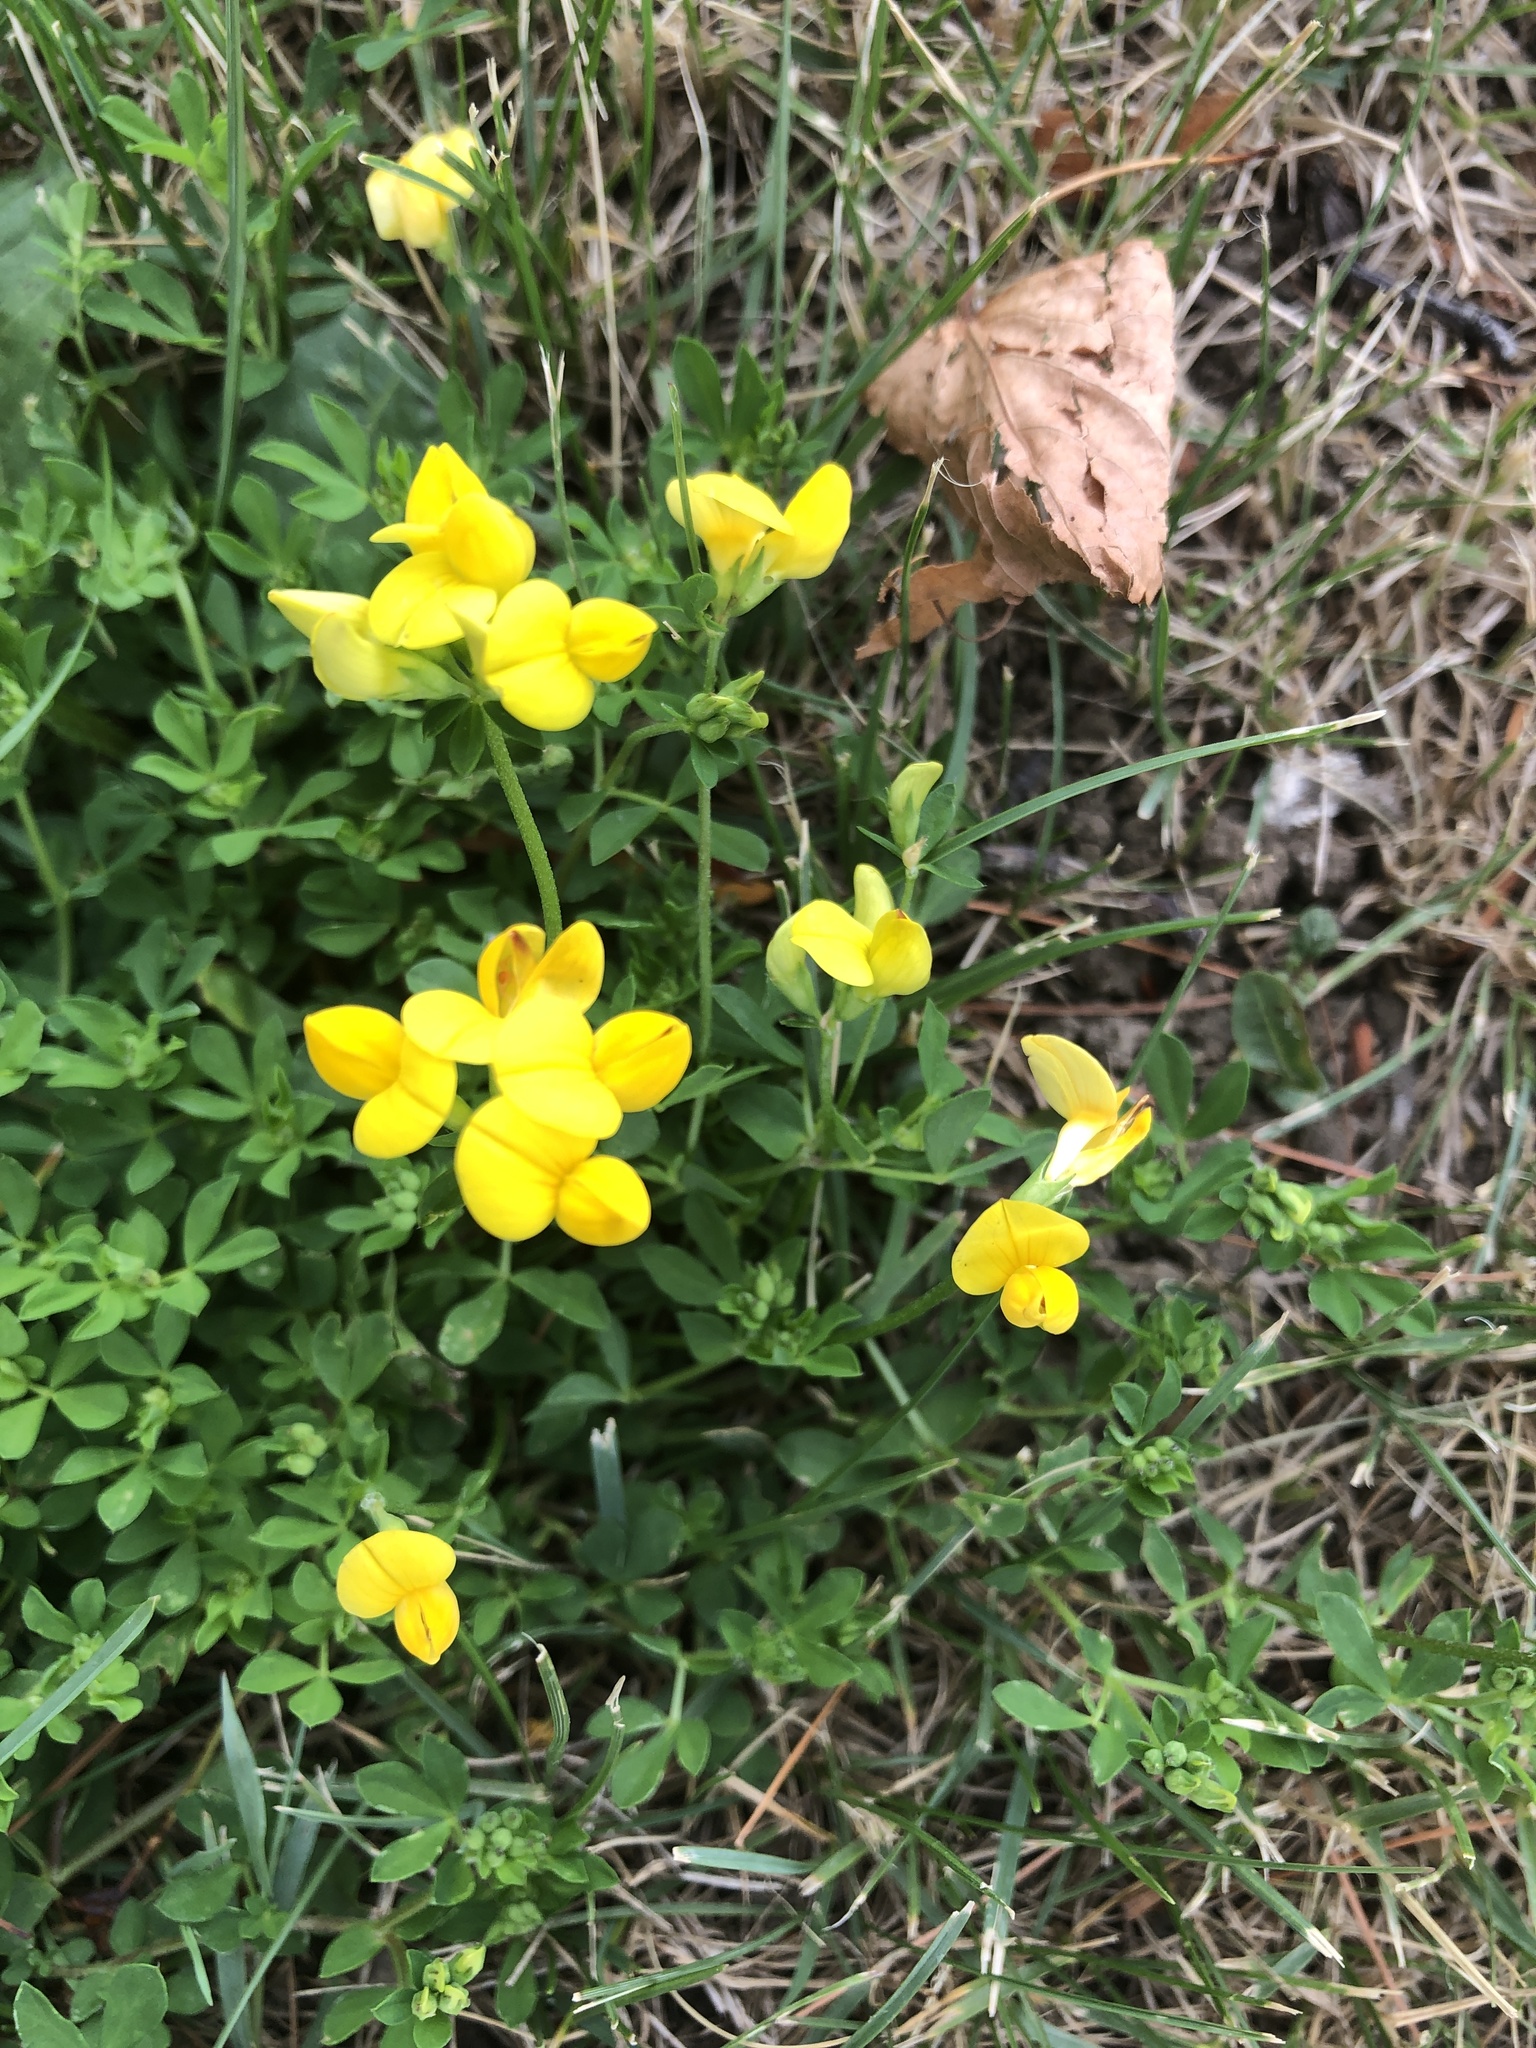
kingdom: Plantae
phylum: Tracheophyta
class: Magnoliopsida
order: Fabales
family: Fabaceae
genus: Lotus
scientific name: Lotus corniculatus
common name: Common bird's-foot-trefoil
